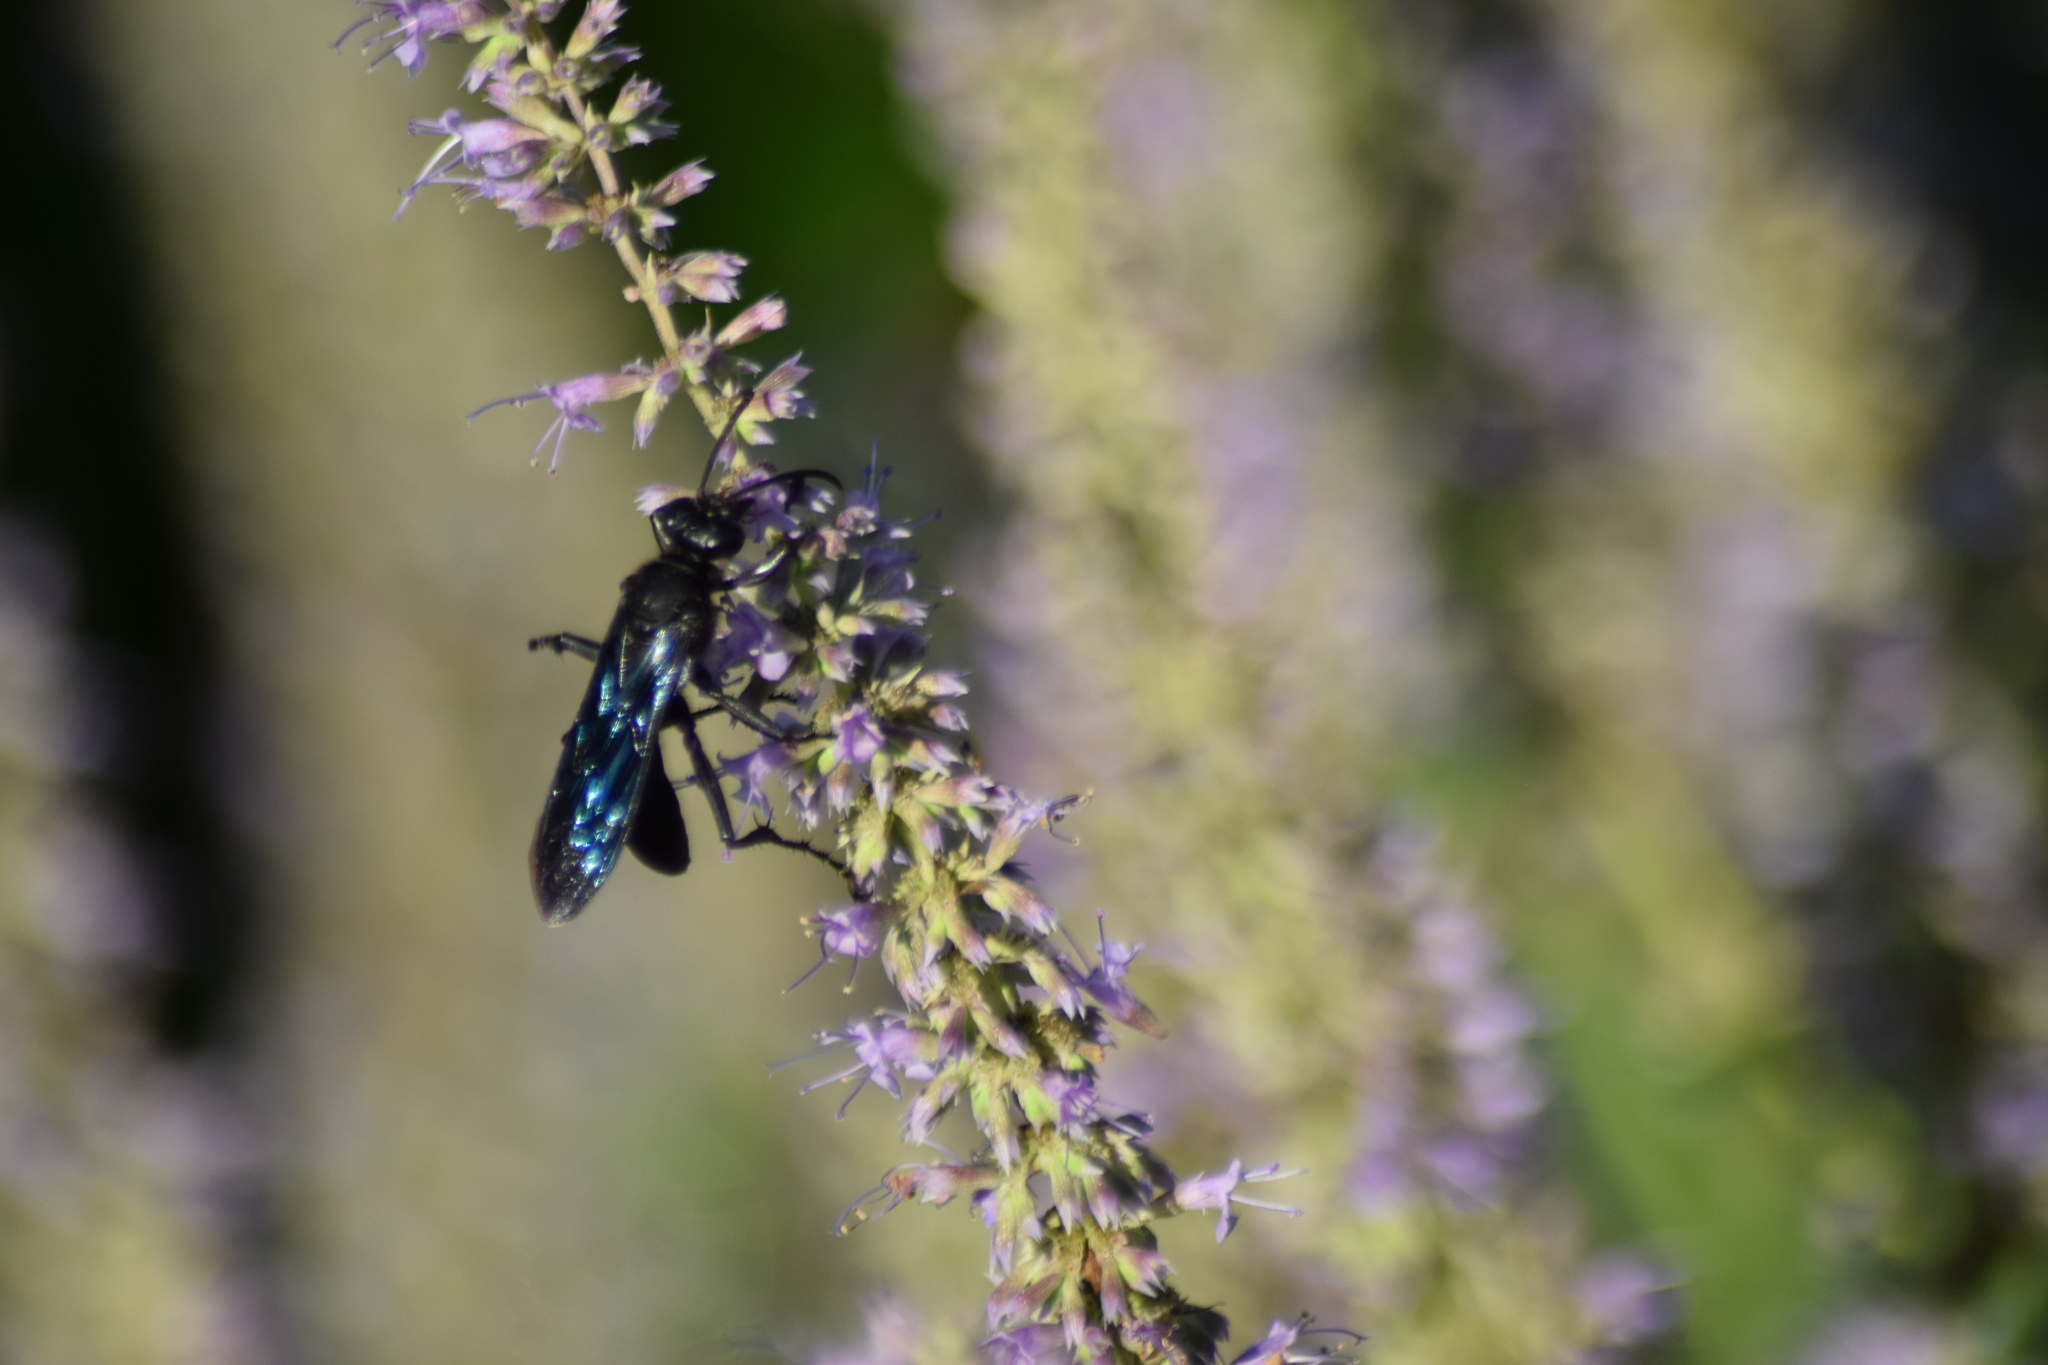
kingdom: Animalia
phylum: Arthropoda
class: Insecta
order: Hymenoptera
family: Sphecidae
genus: Sphex
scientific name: Sphex pensylvanicus
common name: Great black digger wasp
